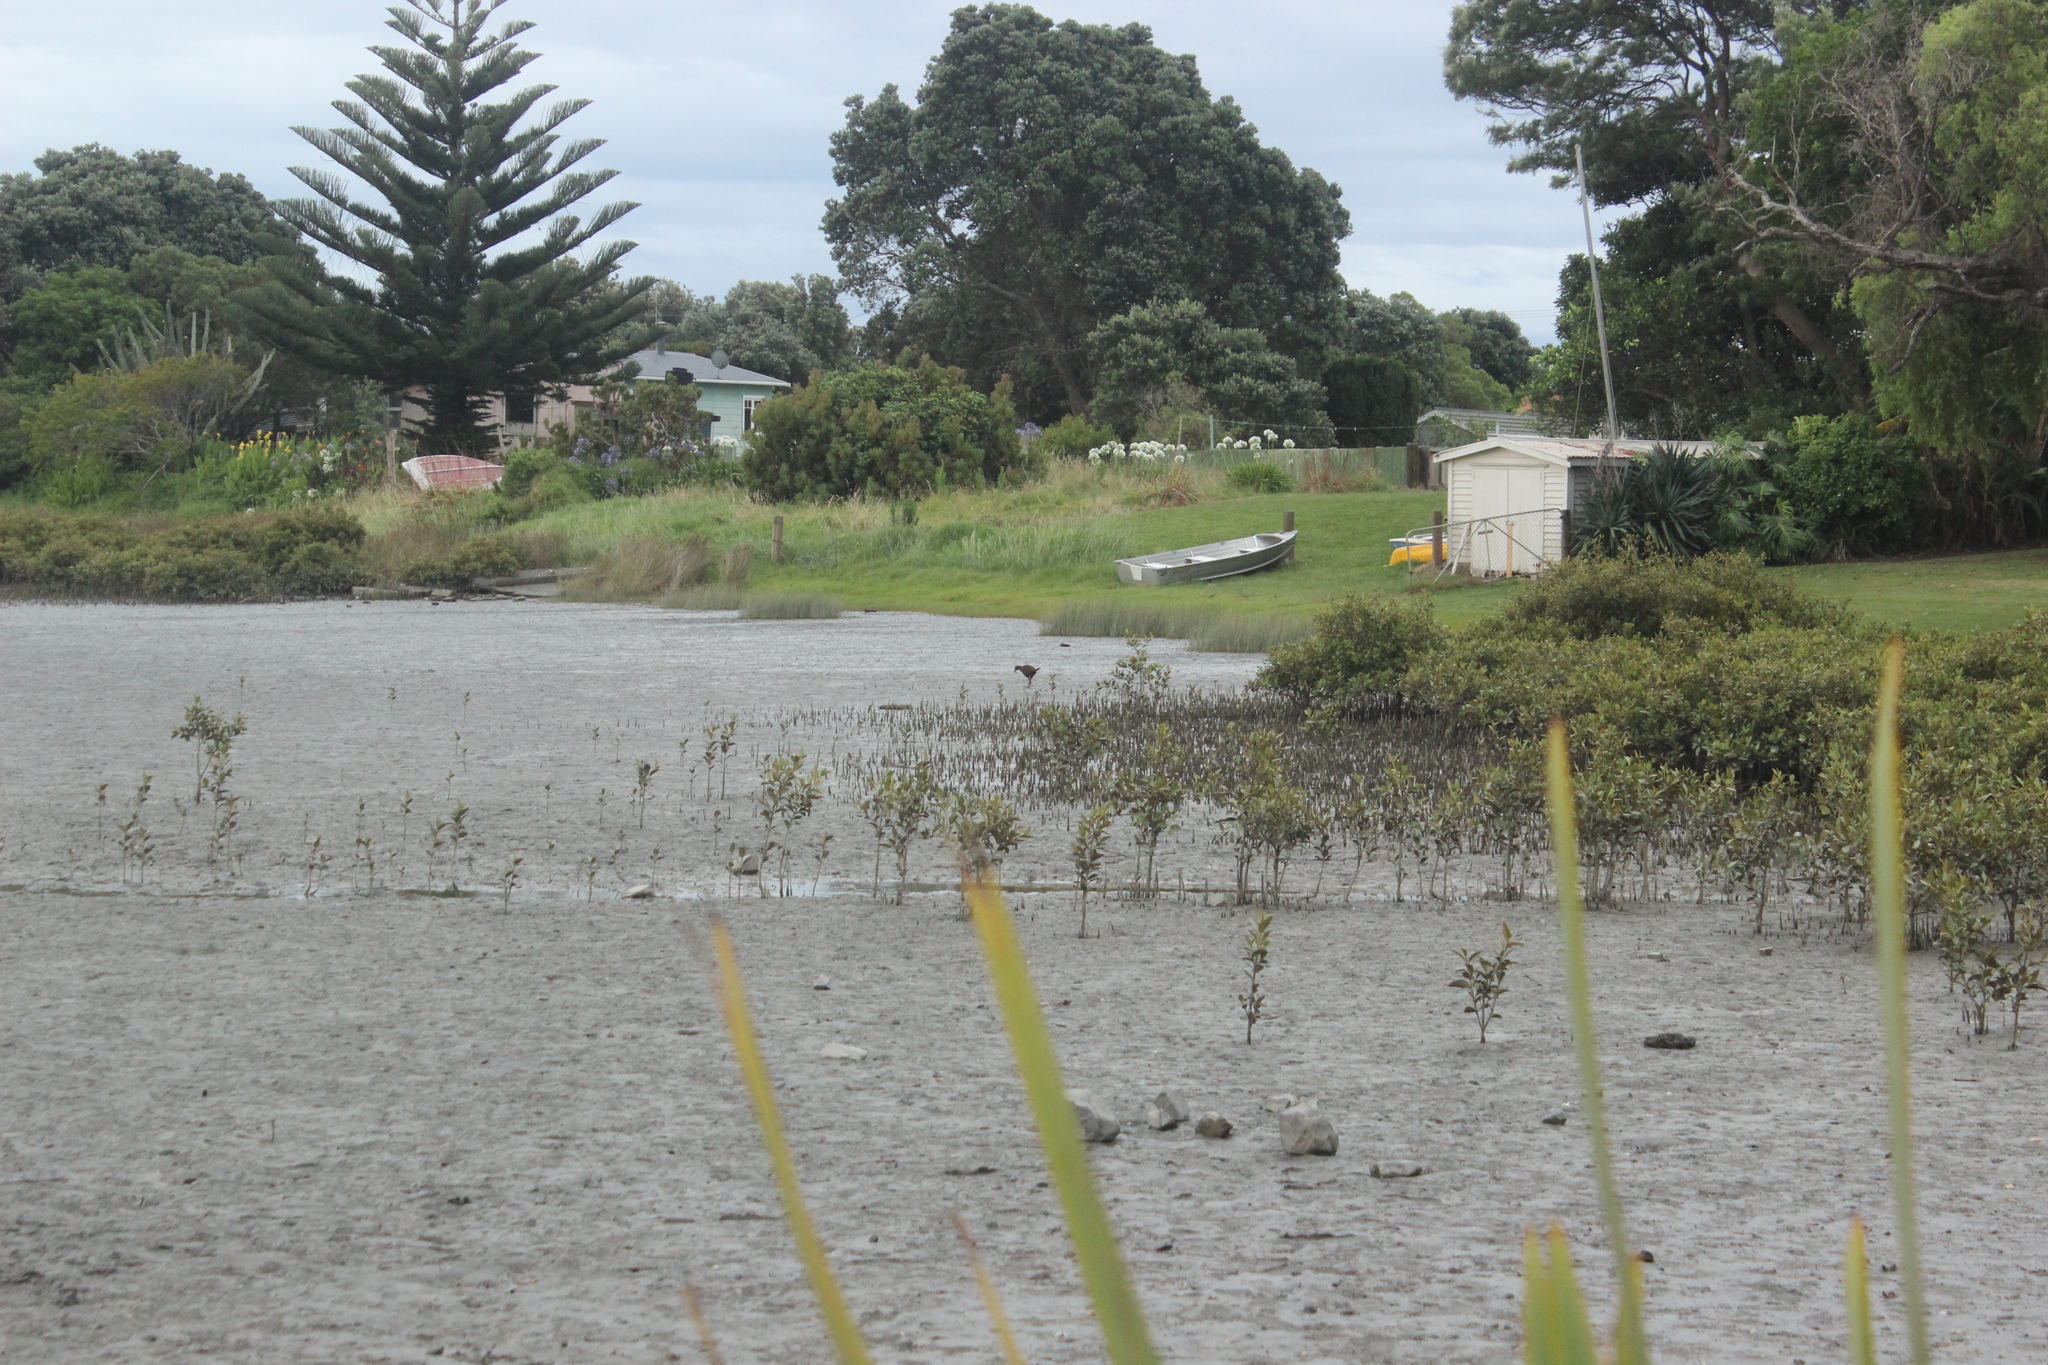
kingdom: Plantae
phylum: Tracheophyta
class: Magnoliopsida
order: Lamiales
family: Acanthaceae
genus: Avicennia
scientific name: Avicennia marina
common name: Gray mangrove
